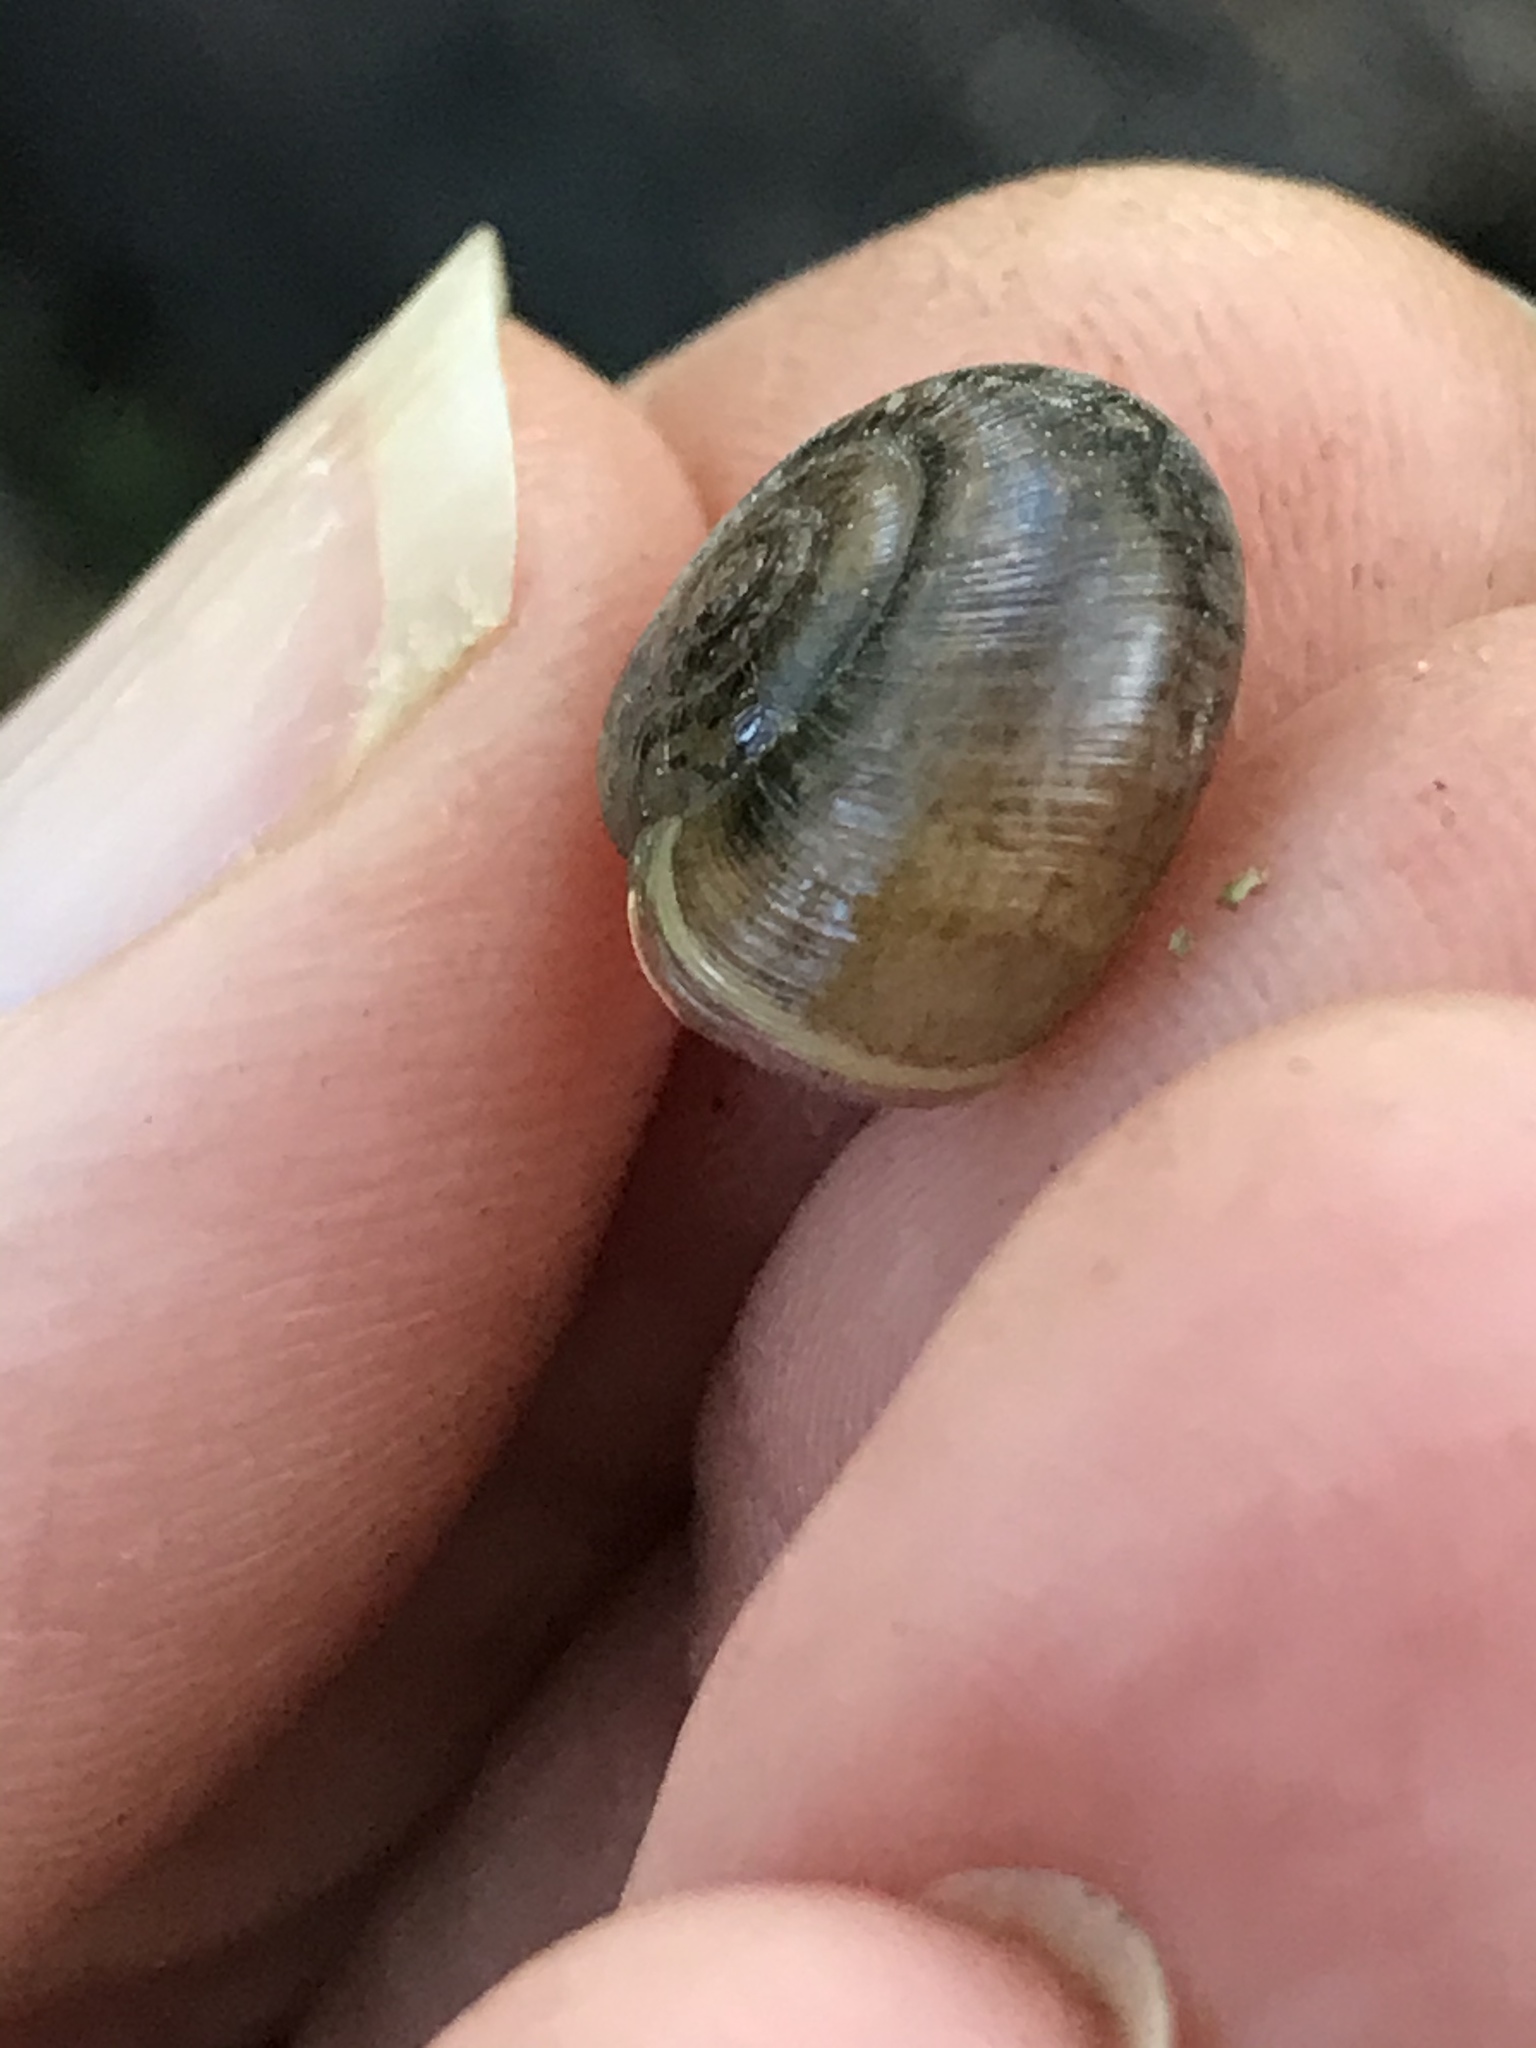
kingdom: Animalia
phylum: Mollusca
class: Gastropoda
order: Stylommatophora
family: Haplotrematidae
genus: Haplotrema
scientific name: Haplotrema minimum
